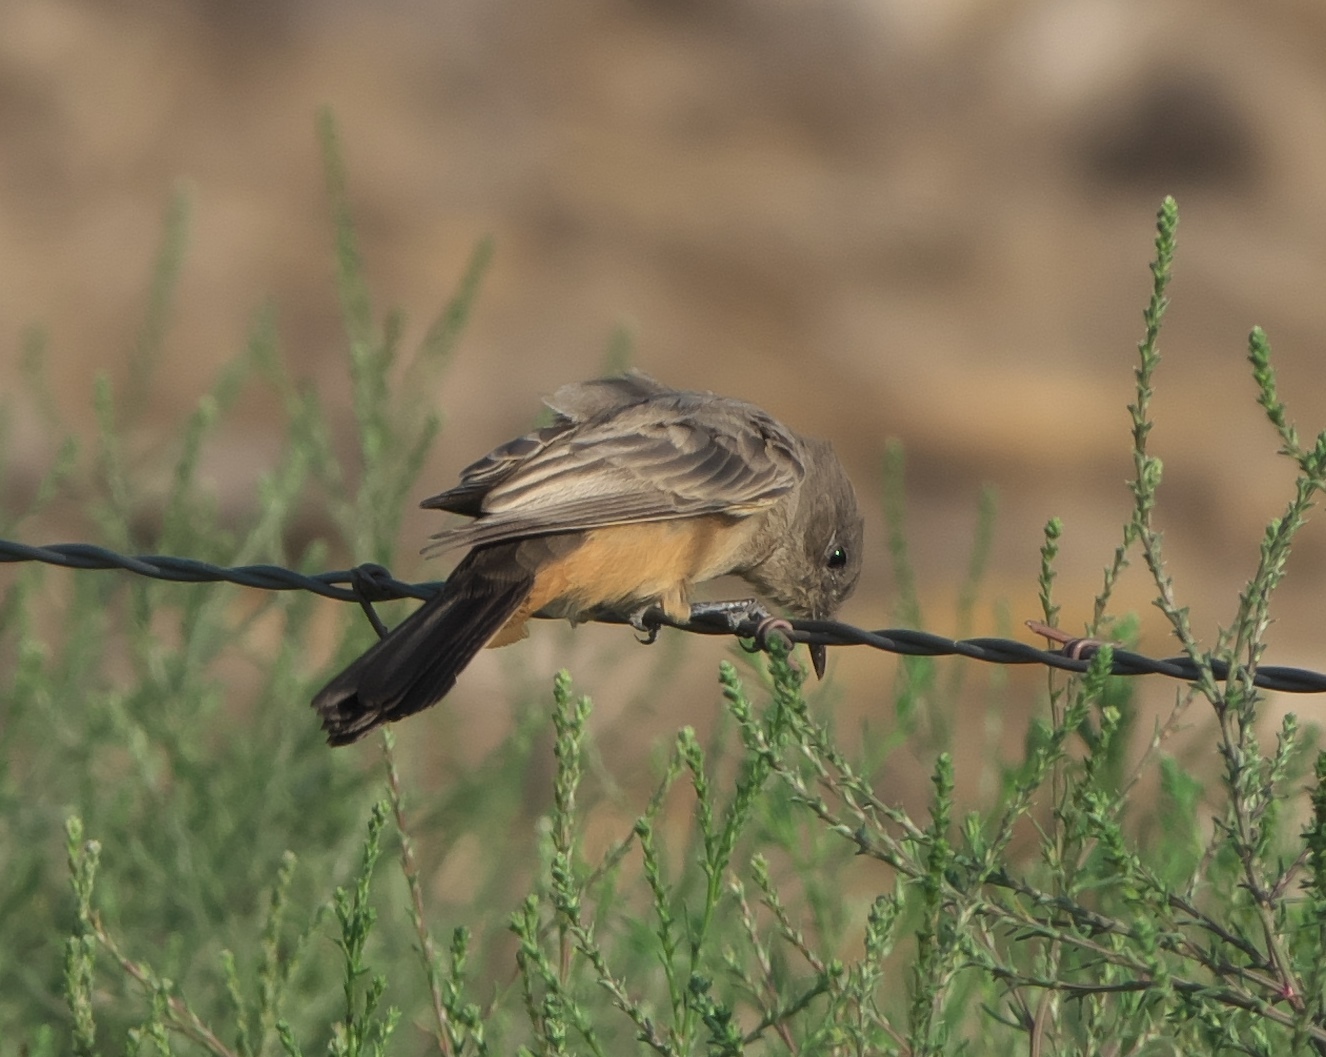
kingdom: Animalia
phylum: Chordata
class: Aves
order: Passeriformes
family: Tyrannidae
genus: Sayornis
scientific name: Sayornis saya
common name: Say's phoebe
